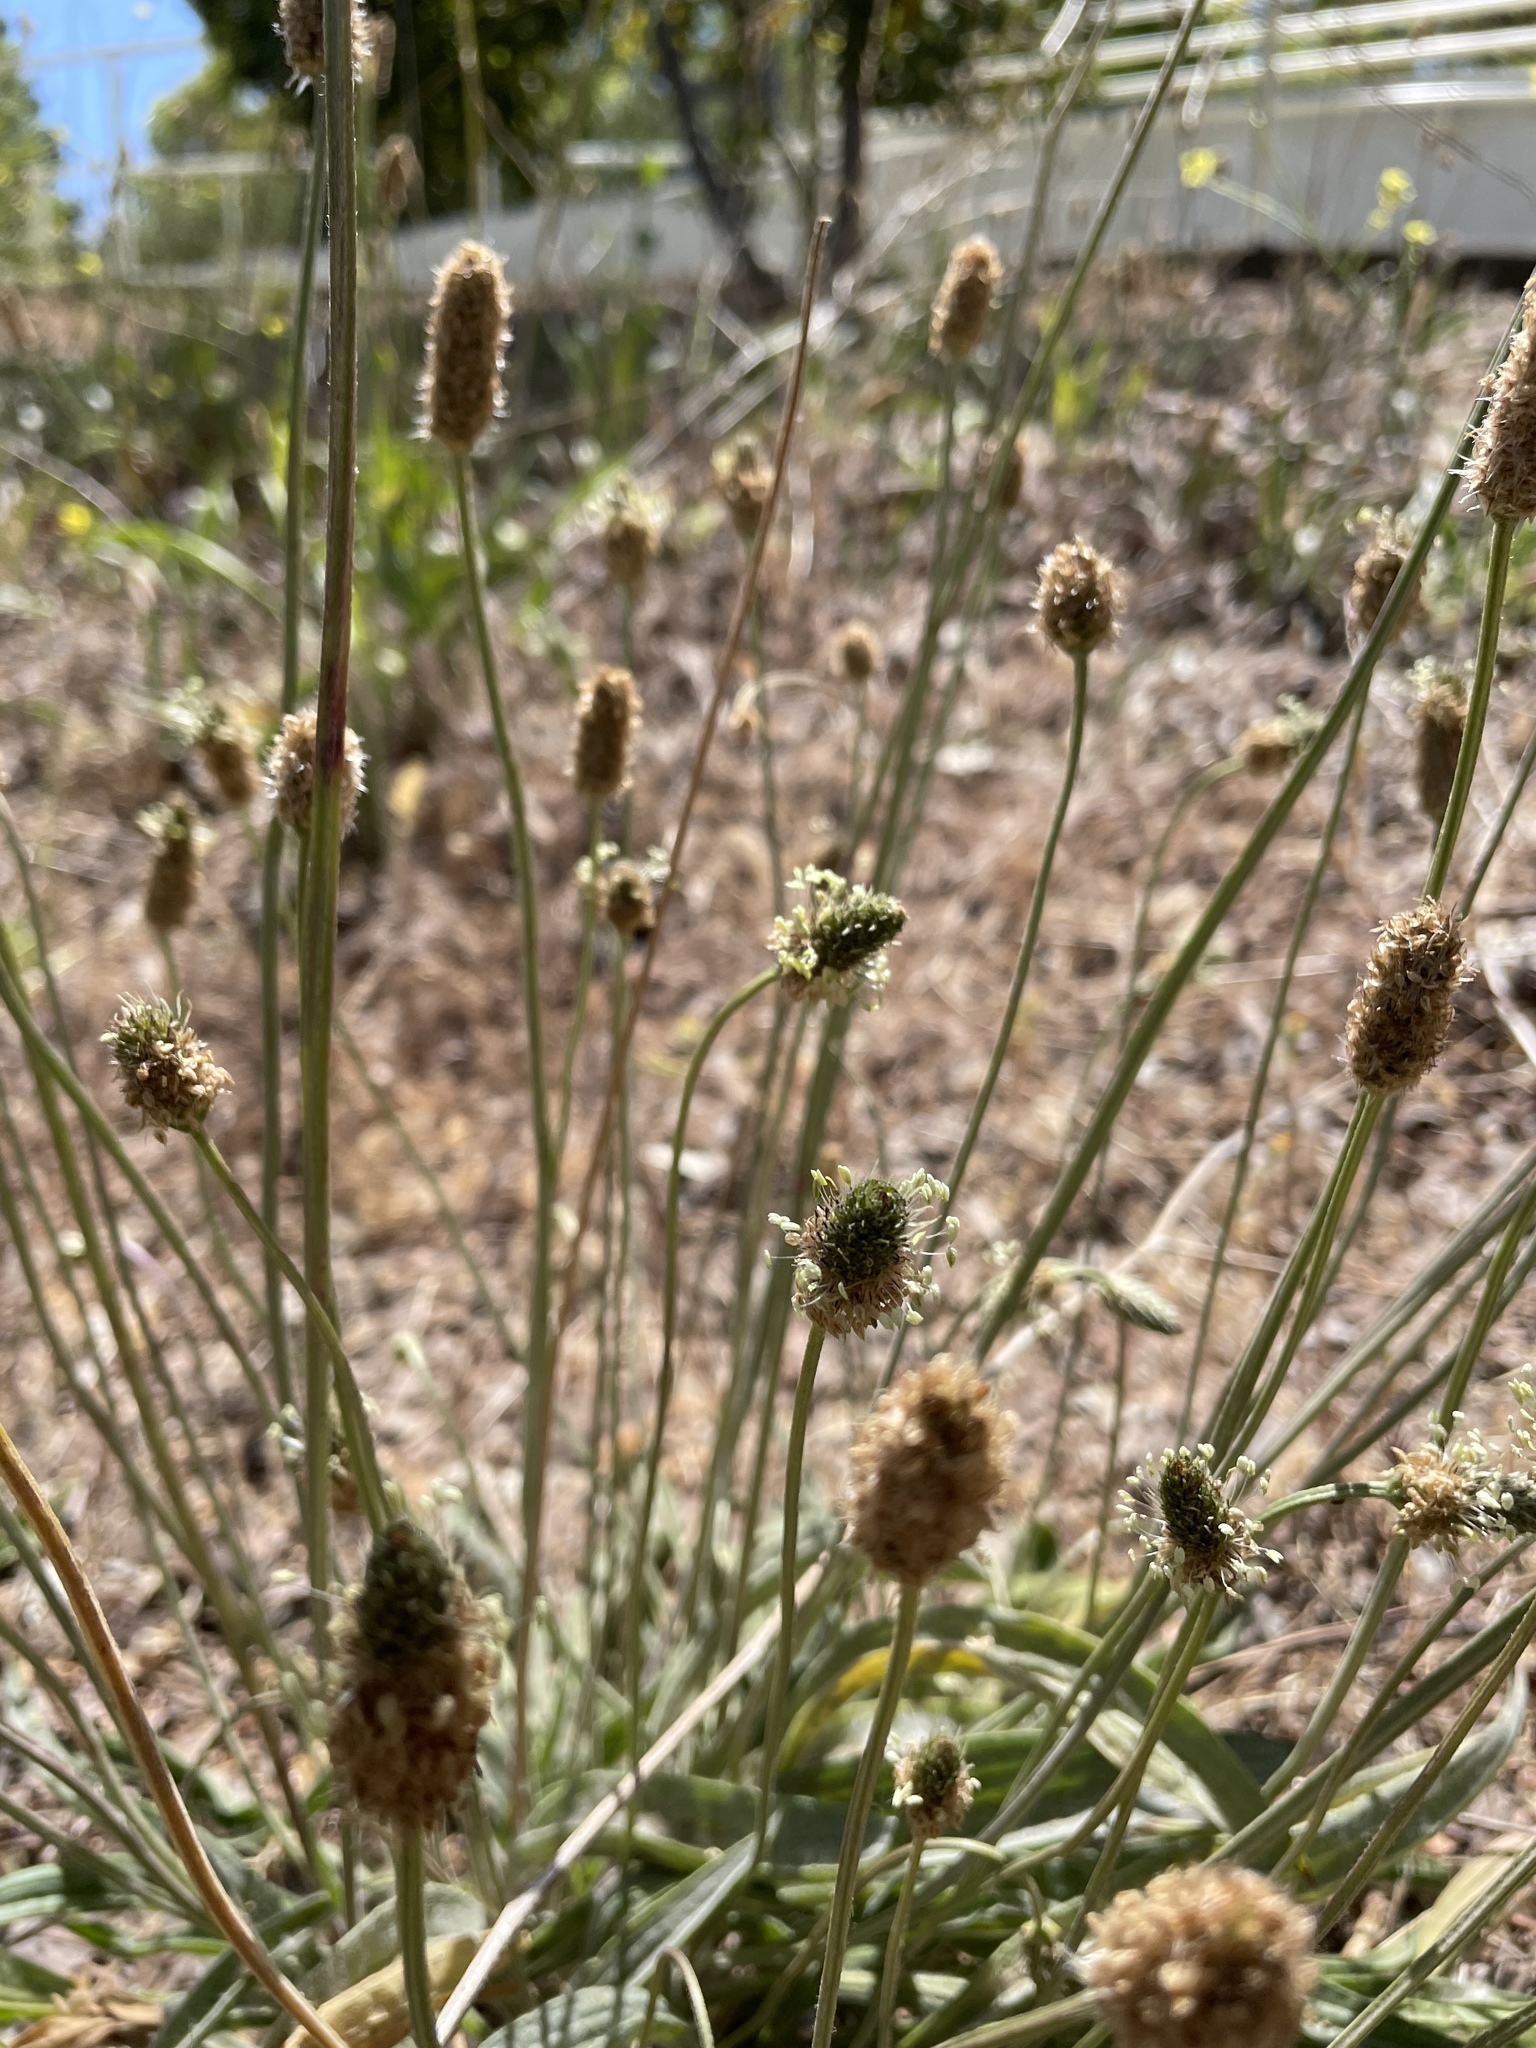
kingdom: Plantae
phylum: Tracheophyta
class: Magnoliopsida
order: Lamiales
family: Plantaginaceae
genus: Plantago
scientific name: Plantago lanceolata
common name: Ribwort plantain
